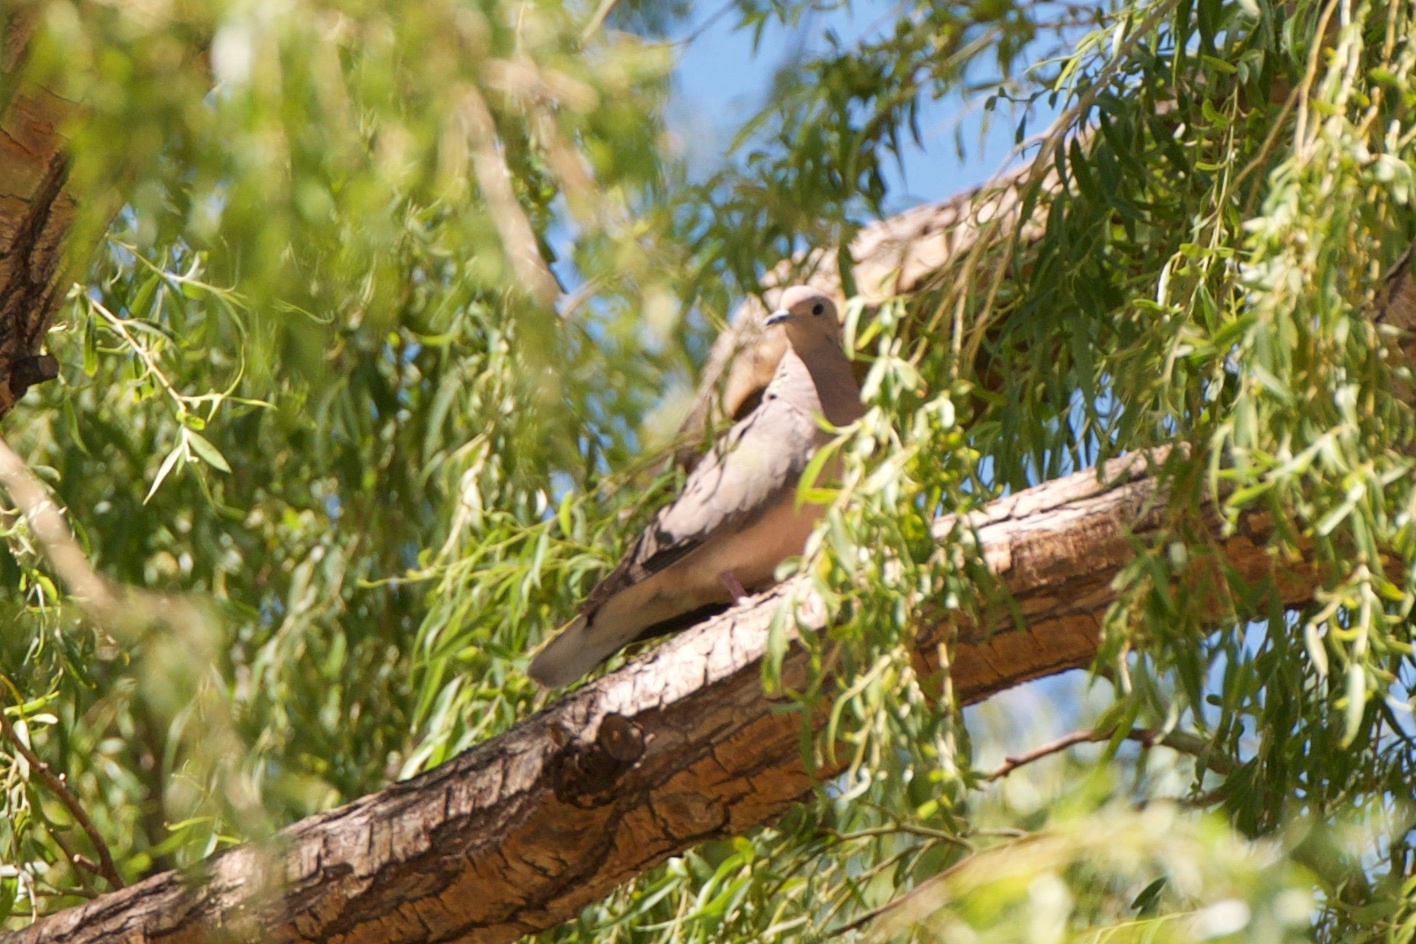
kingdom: Animalia
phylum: Chordata
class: Aves
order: Columbiformes
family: Columbidae
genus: Zenaida
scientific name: Zenaida auriculata
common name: Eared dove
